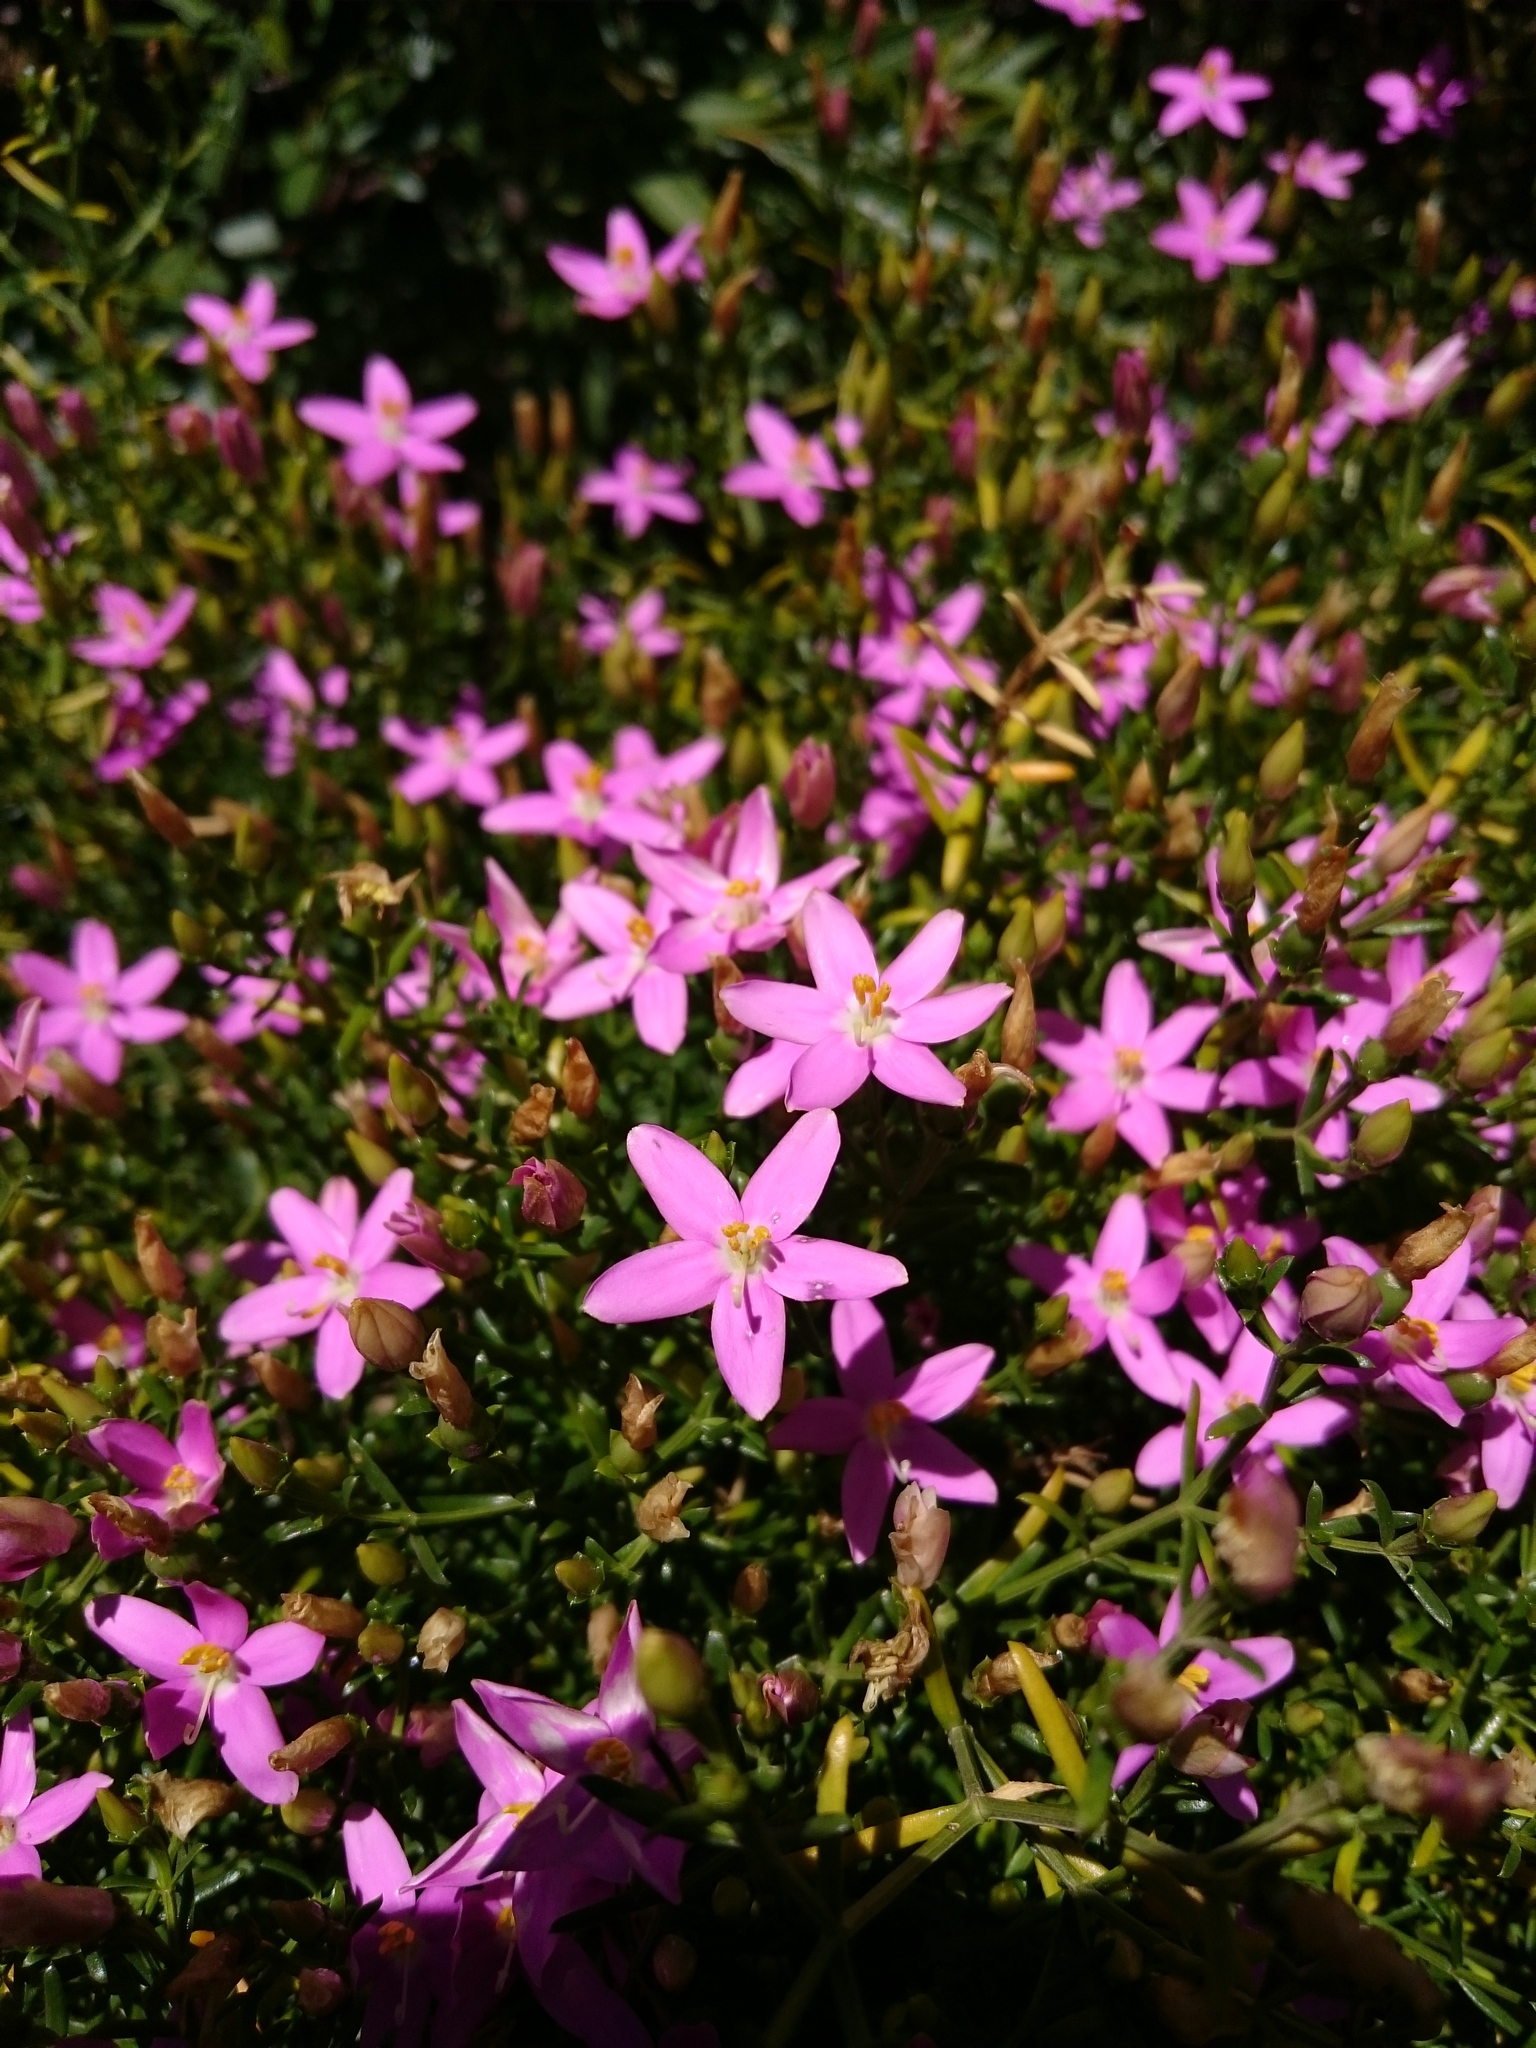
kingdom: Plantae
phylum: Tracheophyta
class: Magnoliopsida
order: Gentianales
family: Gentianaceae
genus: Chironia
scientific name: Chironia baccifera
